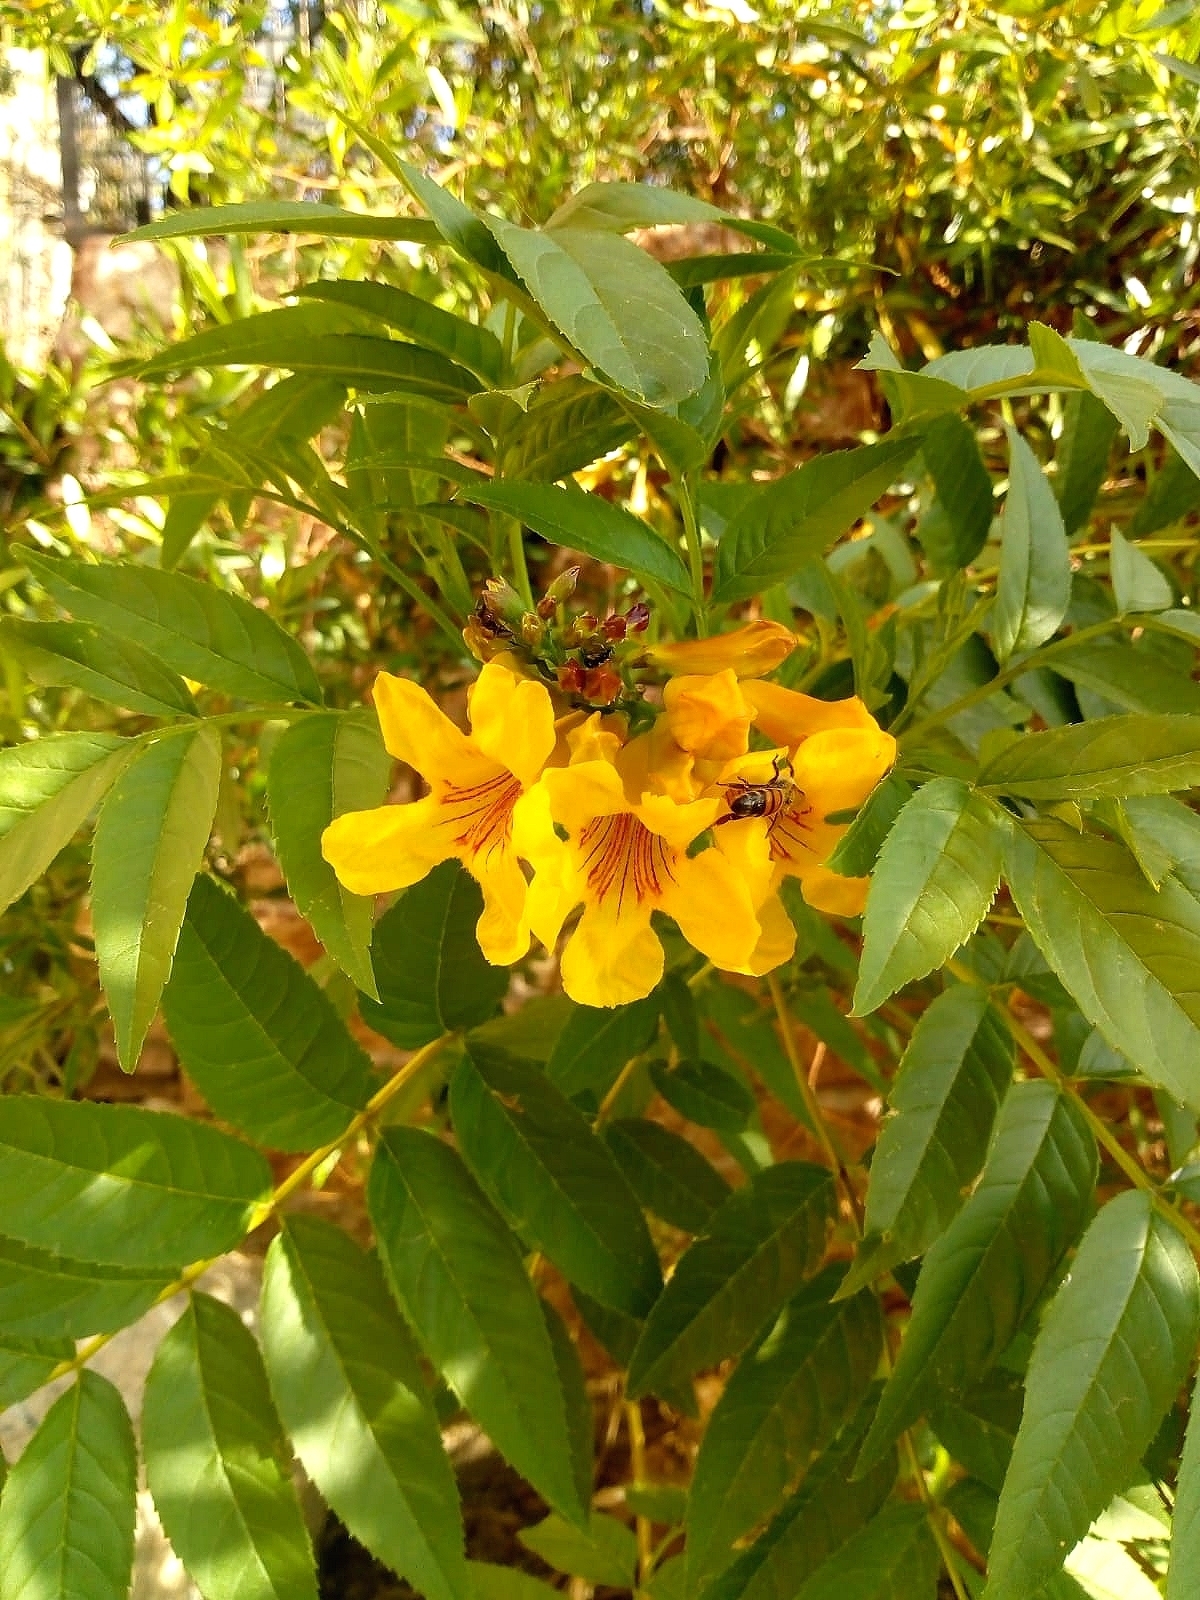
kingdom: Plantae
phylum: Tracheophyta
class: Magnoliopsida
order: Lamiales
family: Bignoniaceae
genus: Tecoma
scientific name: Tecoma stans
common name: Yellow trumpetbush
